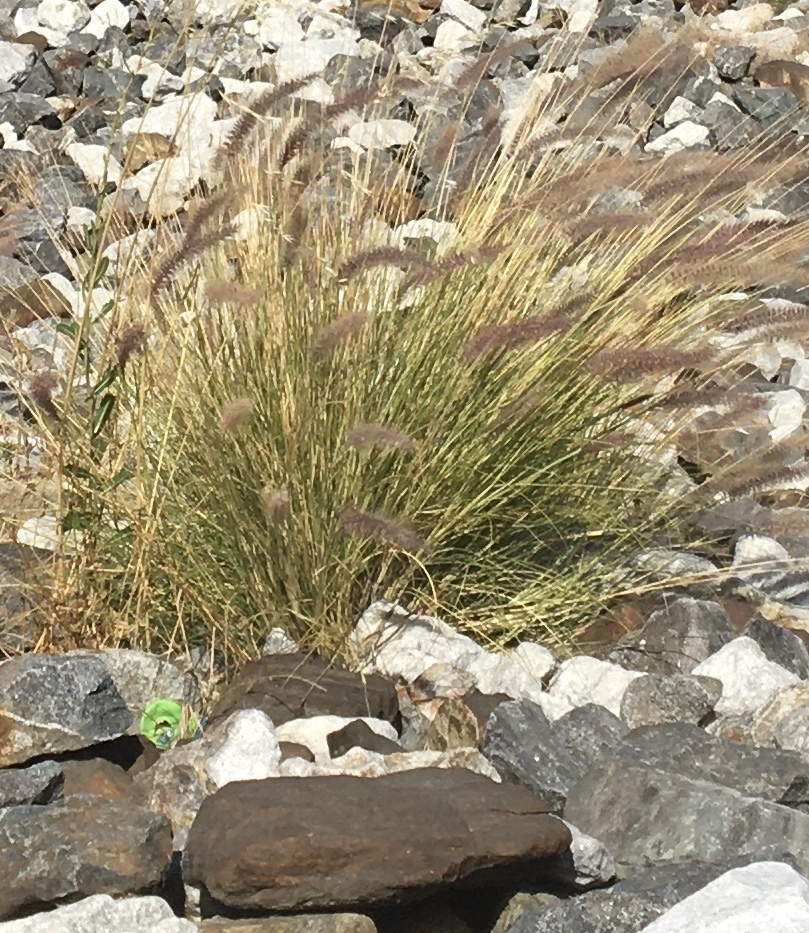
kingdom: Plantae
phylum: Tracheophyta
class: Liliopsida
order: Poales
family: Poaceae
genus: Cenchrus
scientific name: Cenchrus setaceus
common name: Crimson fountaingrass
